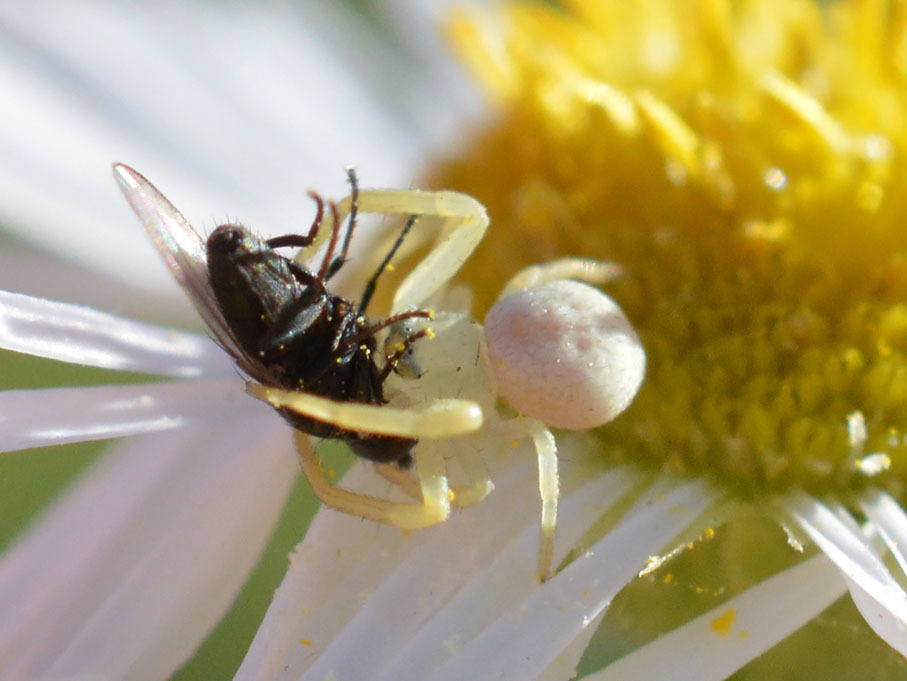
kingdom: Animalia
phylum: Arthropoda
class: Arachnida
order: Araneae
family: Thomisidae
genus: Misumena
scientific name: Misumena vatia
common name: Goldenrod crab spider
